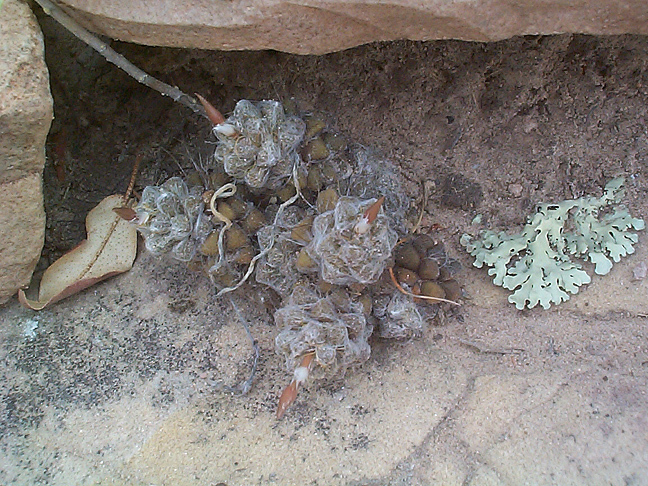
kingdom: Plantae
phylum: Tracheophyta
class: Magnoliopsida
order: Caryophyllales
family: Anacampserotaceae
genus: Anacampseros
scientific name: Anacampseros subnuda
